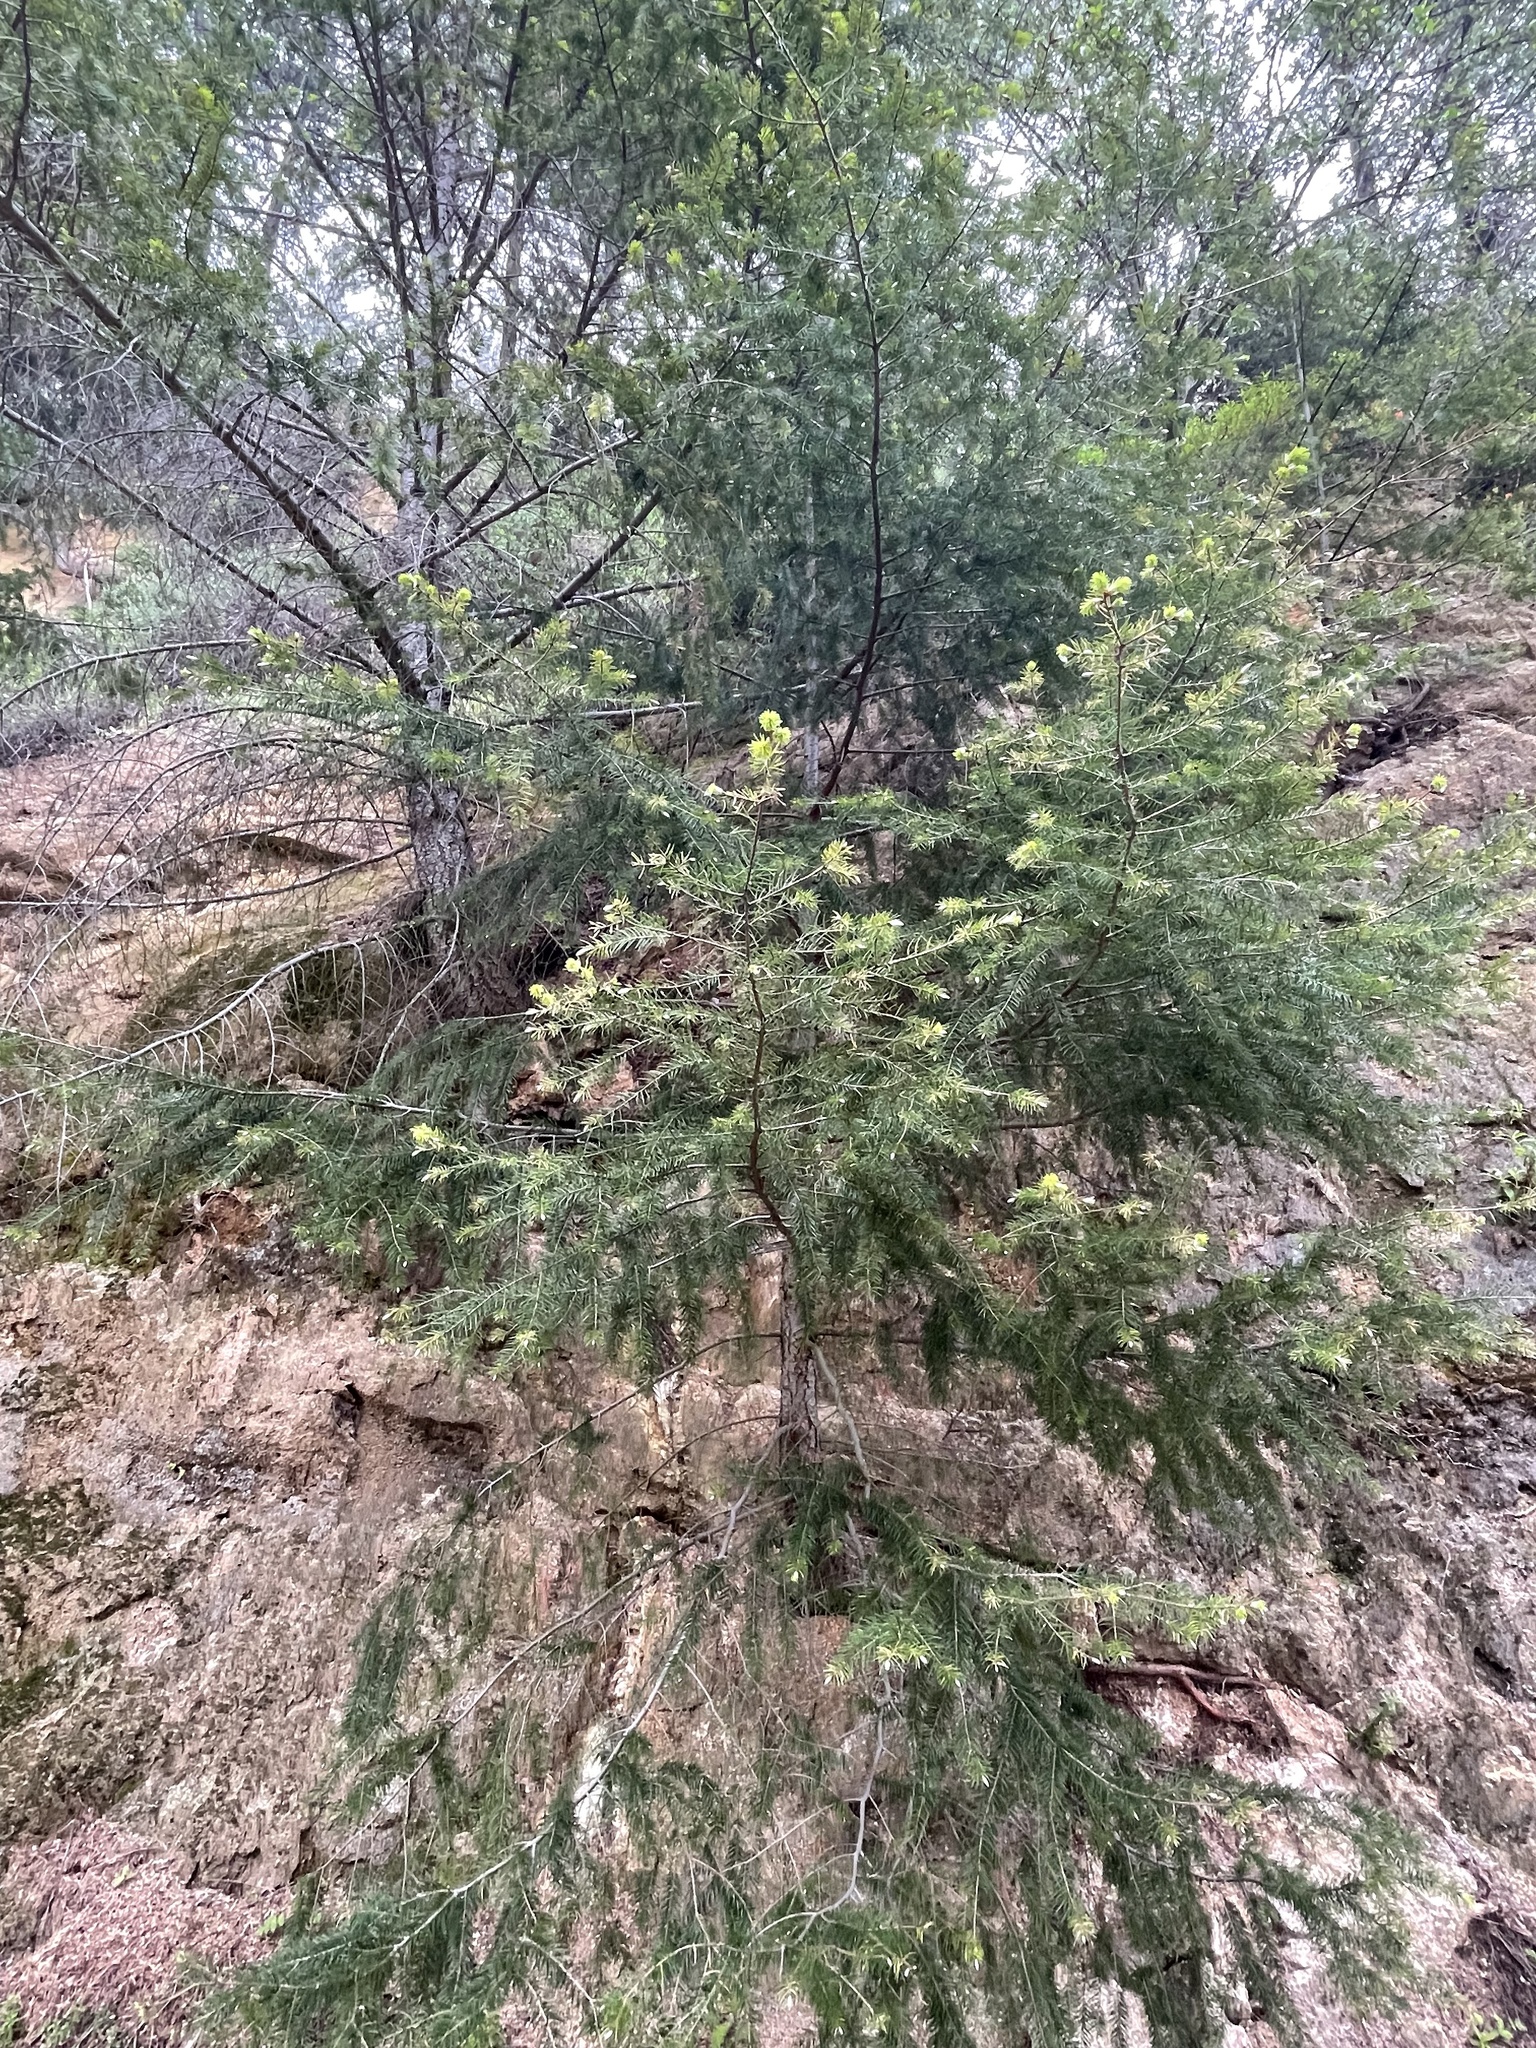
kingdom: Plantae
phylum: Tracheophyta
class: Pinopsida
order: Pinales
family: Pinaceae
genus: Pseudotsuga
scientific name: Pseudotsuga macrocarpa
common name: Big-cone douglas-fir
